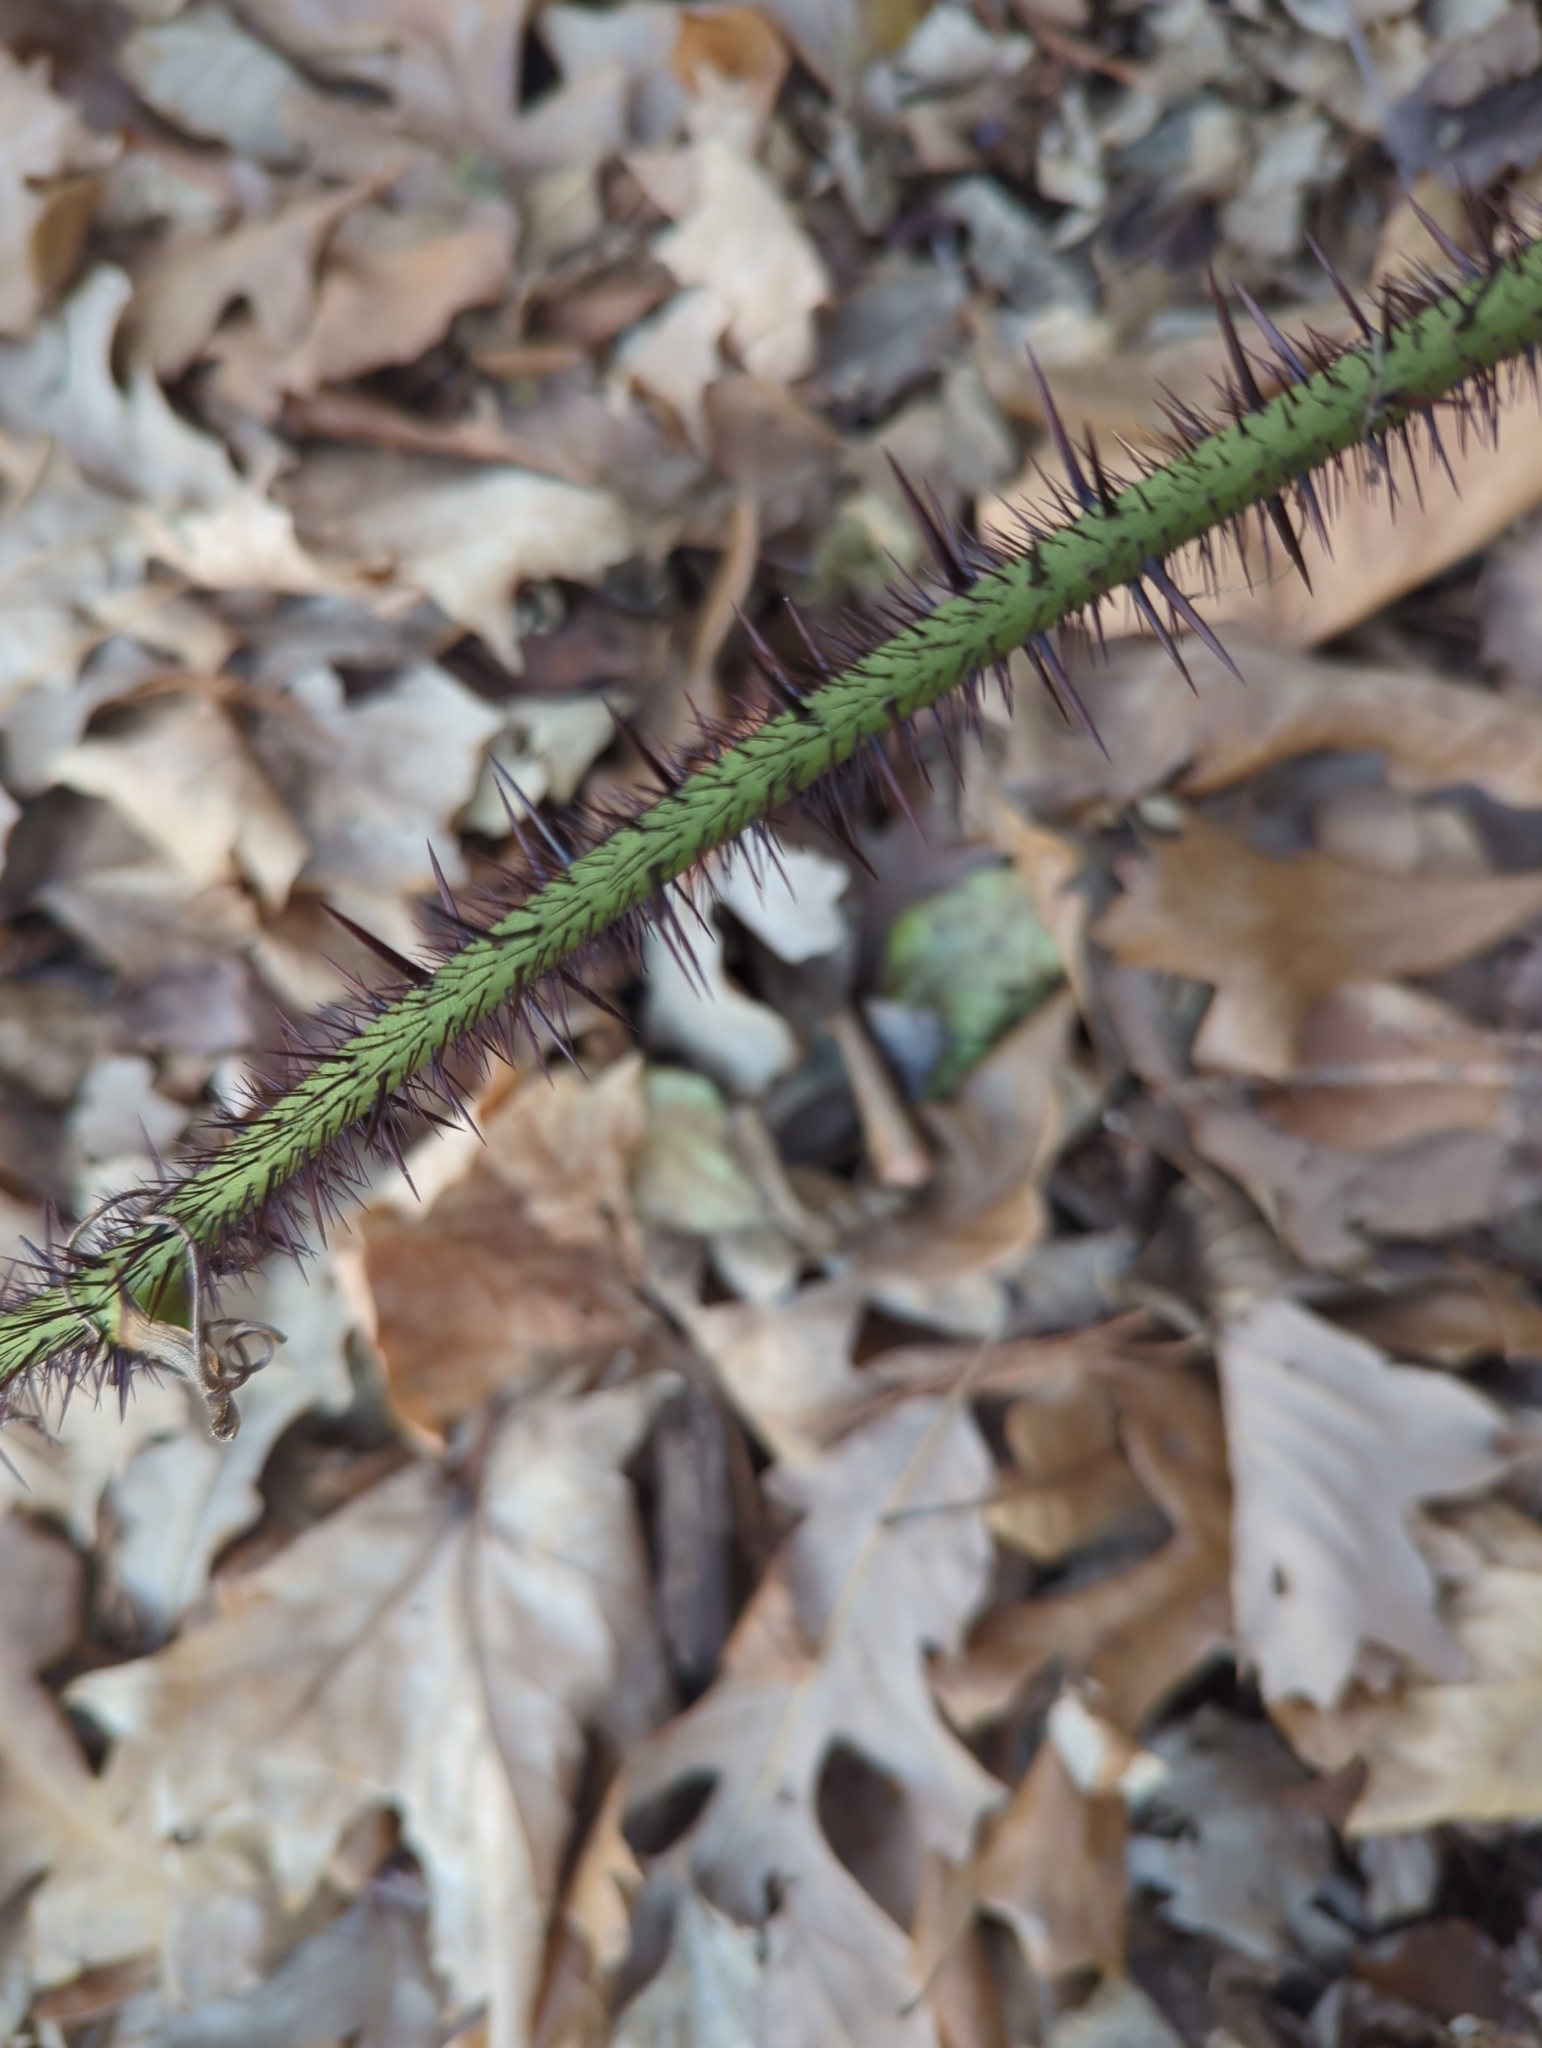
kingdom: Plantae
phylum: Tracheophyta
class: Liliopsida
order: Liliales
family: Smilacaceae
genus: Smilax
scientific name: Smilax tamnoides
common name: Hellfetter
